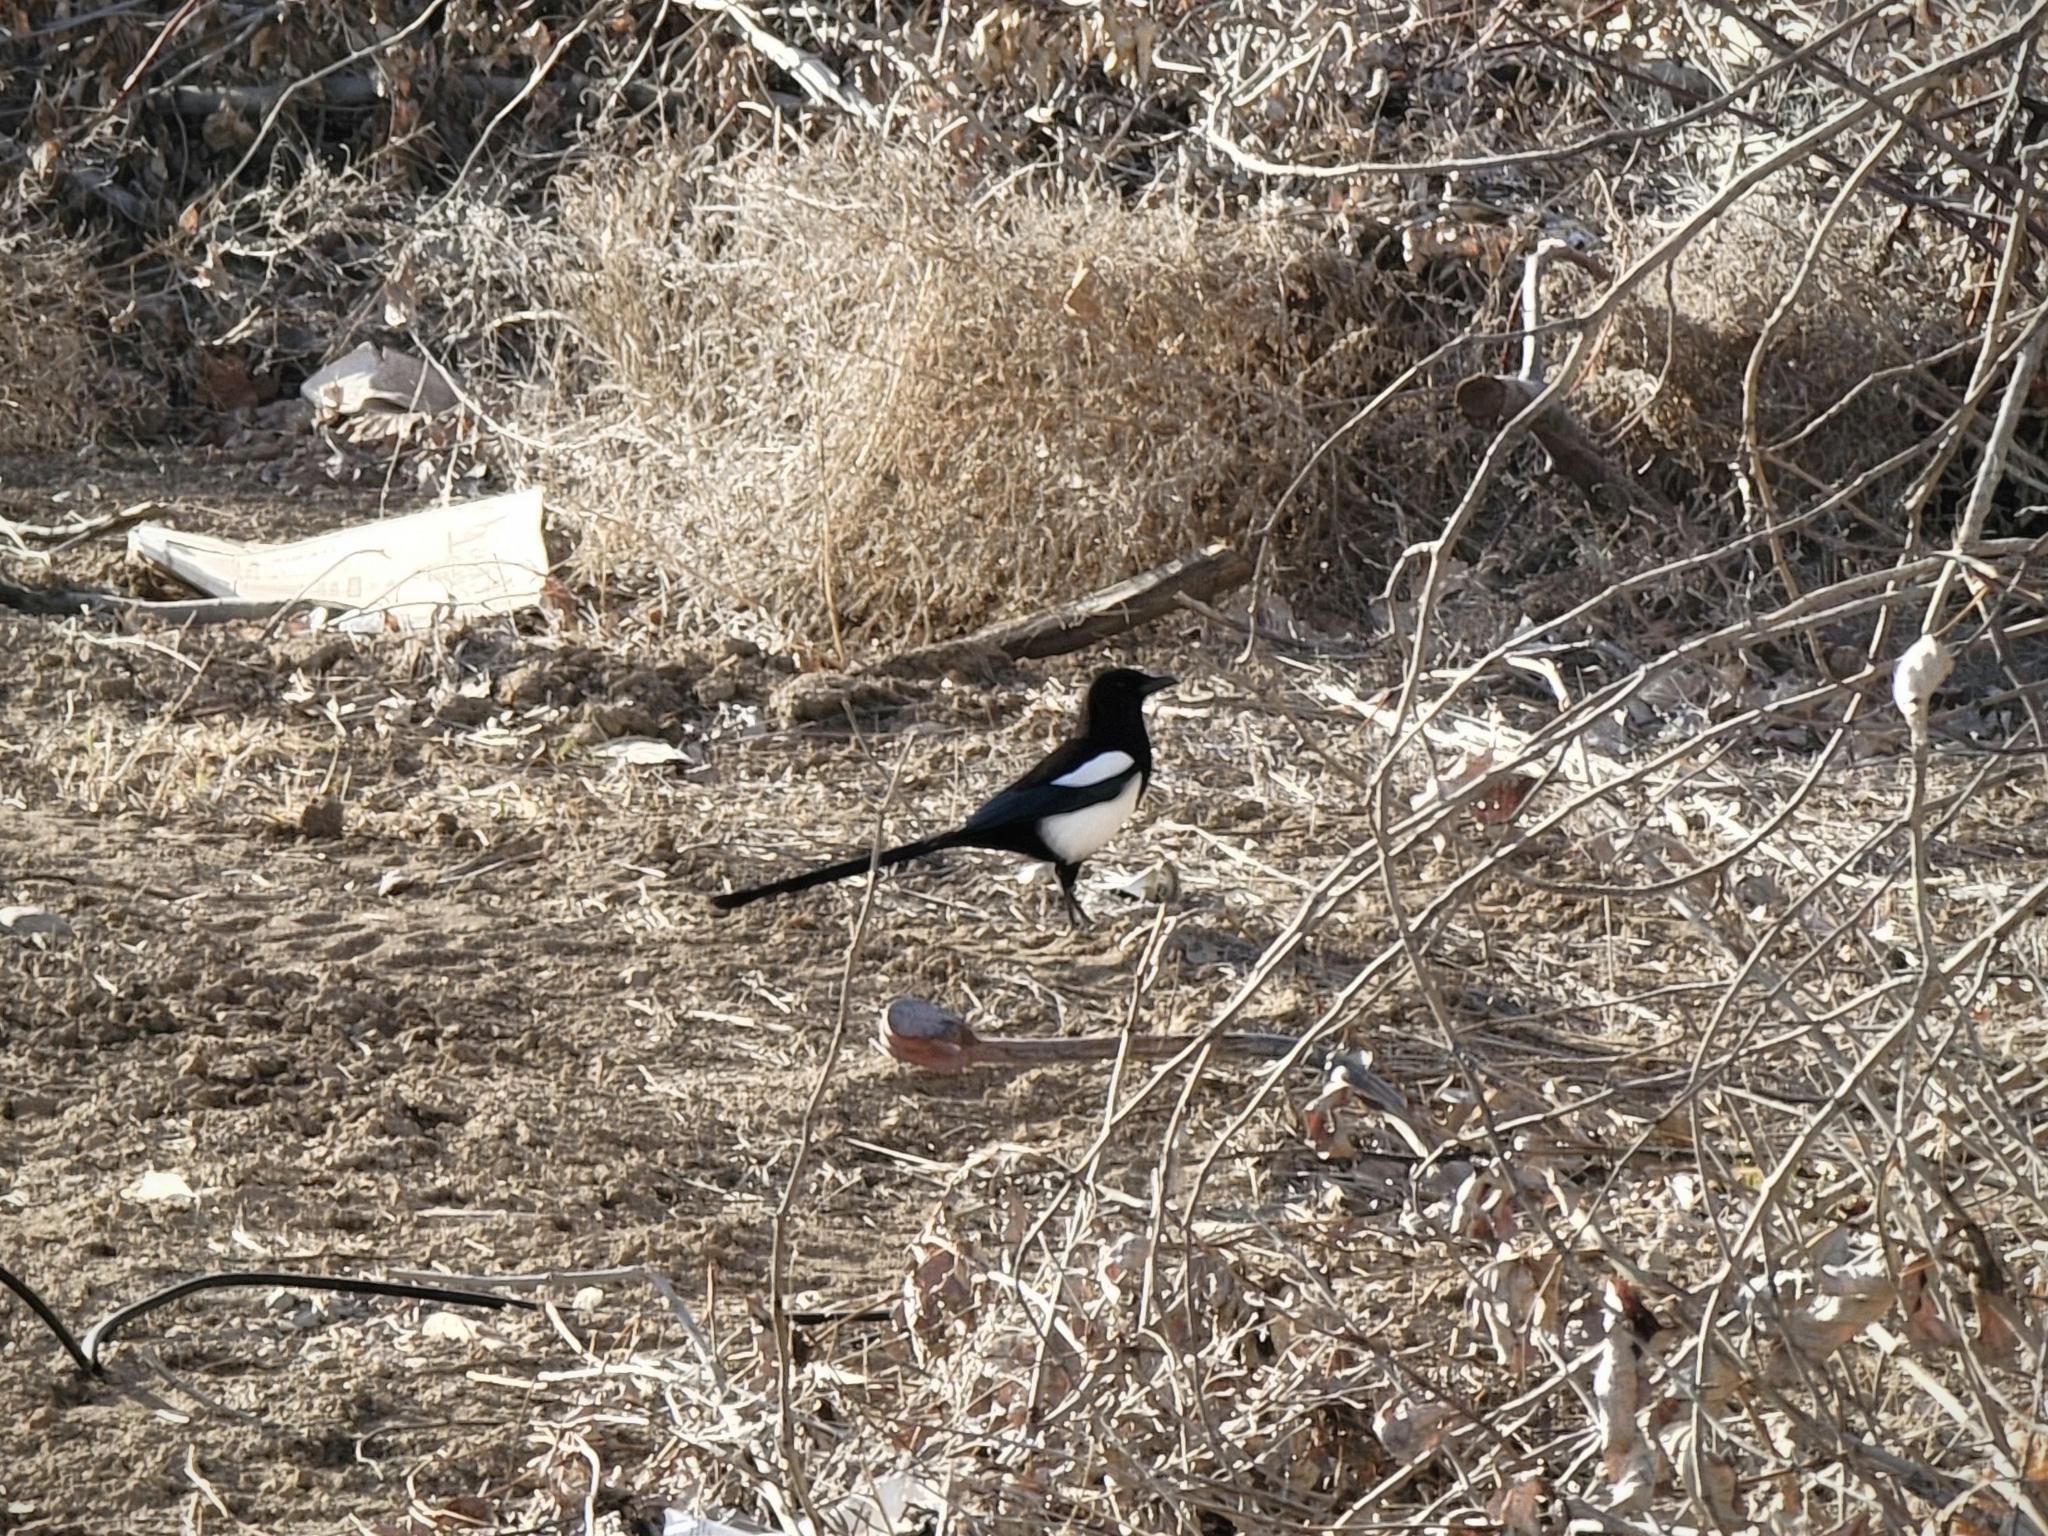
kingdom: Animalia
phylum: Chordata
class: Aves
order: Passeriformes
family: Corvidae
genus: Pica
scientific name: Pica hudsonia
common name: Black-billed magpie
